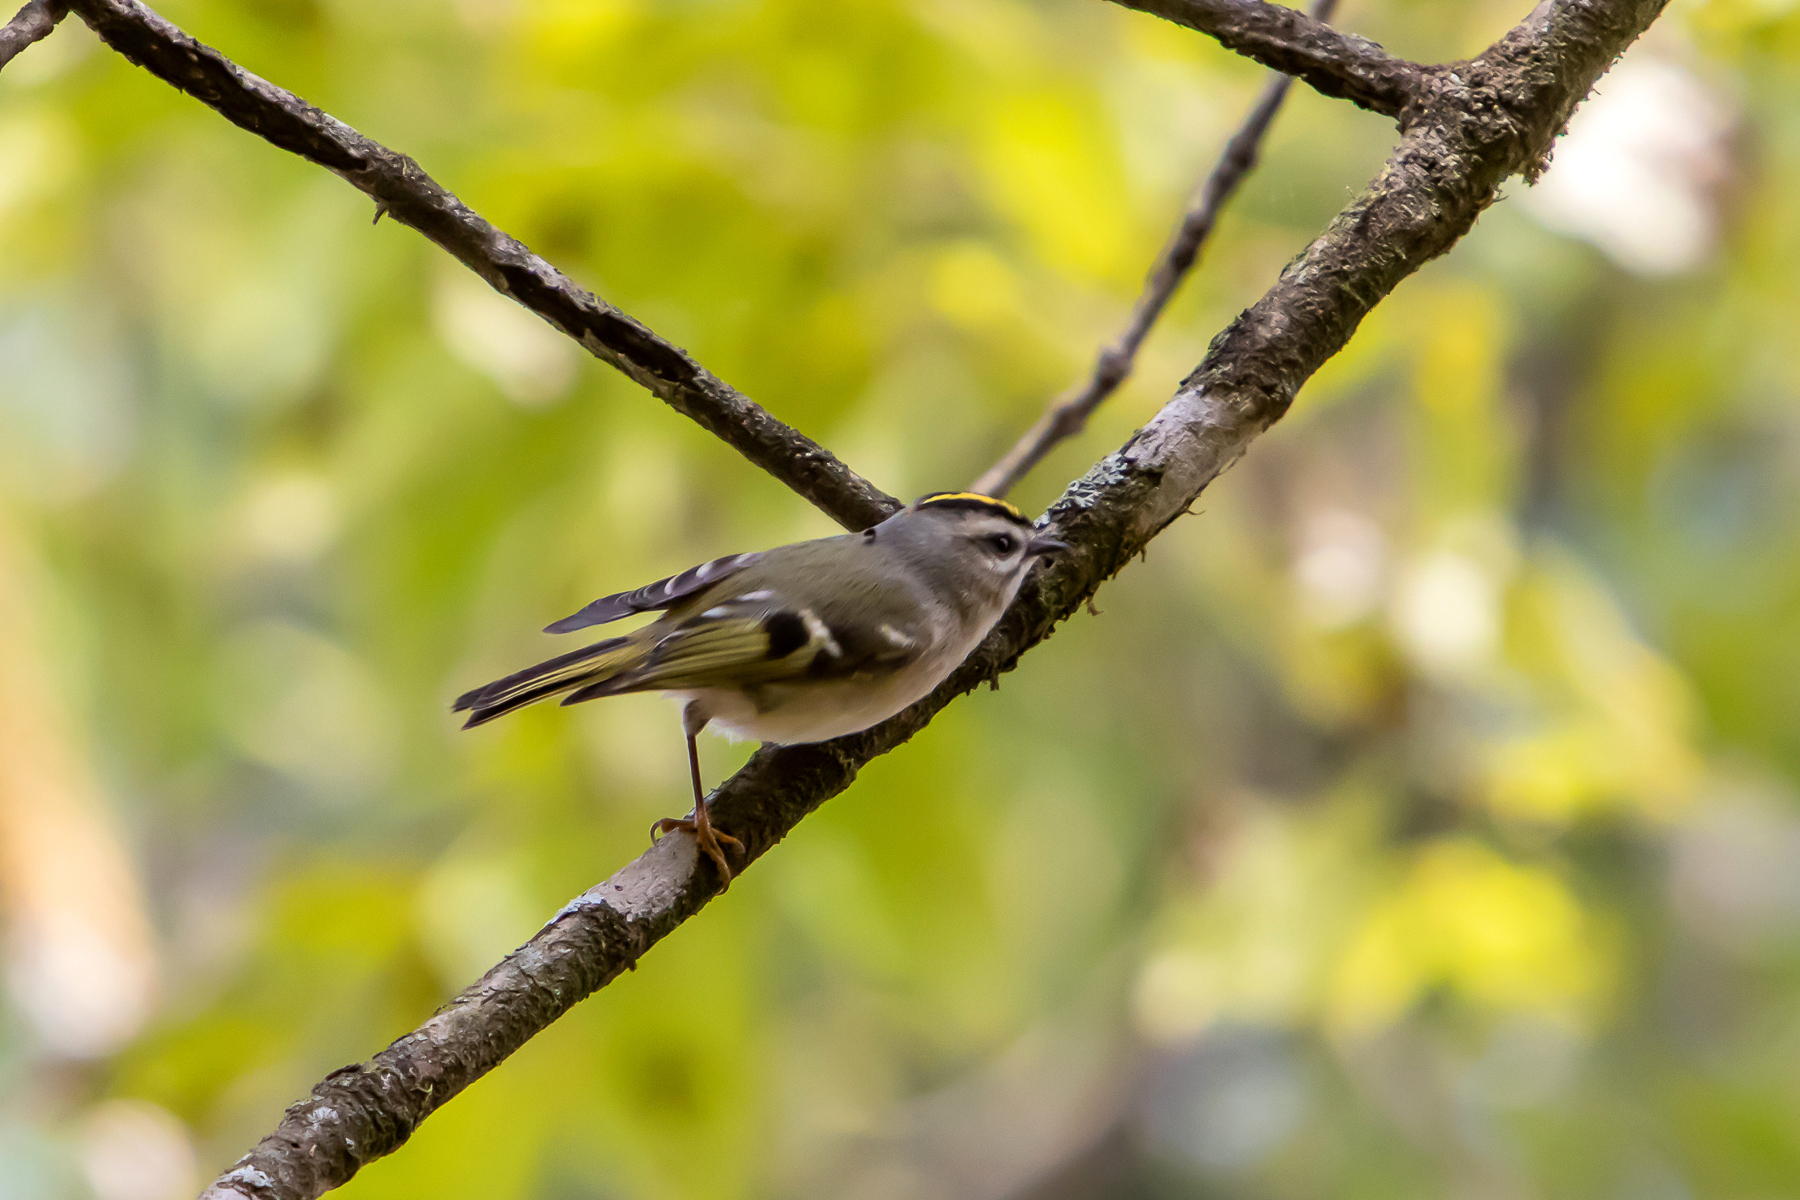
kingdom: Animalia
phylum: Chordata
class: Aves
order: Passeriformes
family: Regulidae
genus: Regulus
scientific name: Regulus satrapa
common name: Golden-crowned kinglet
